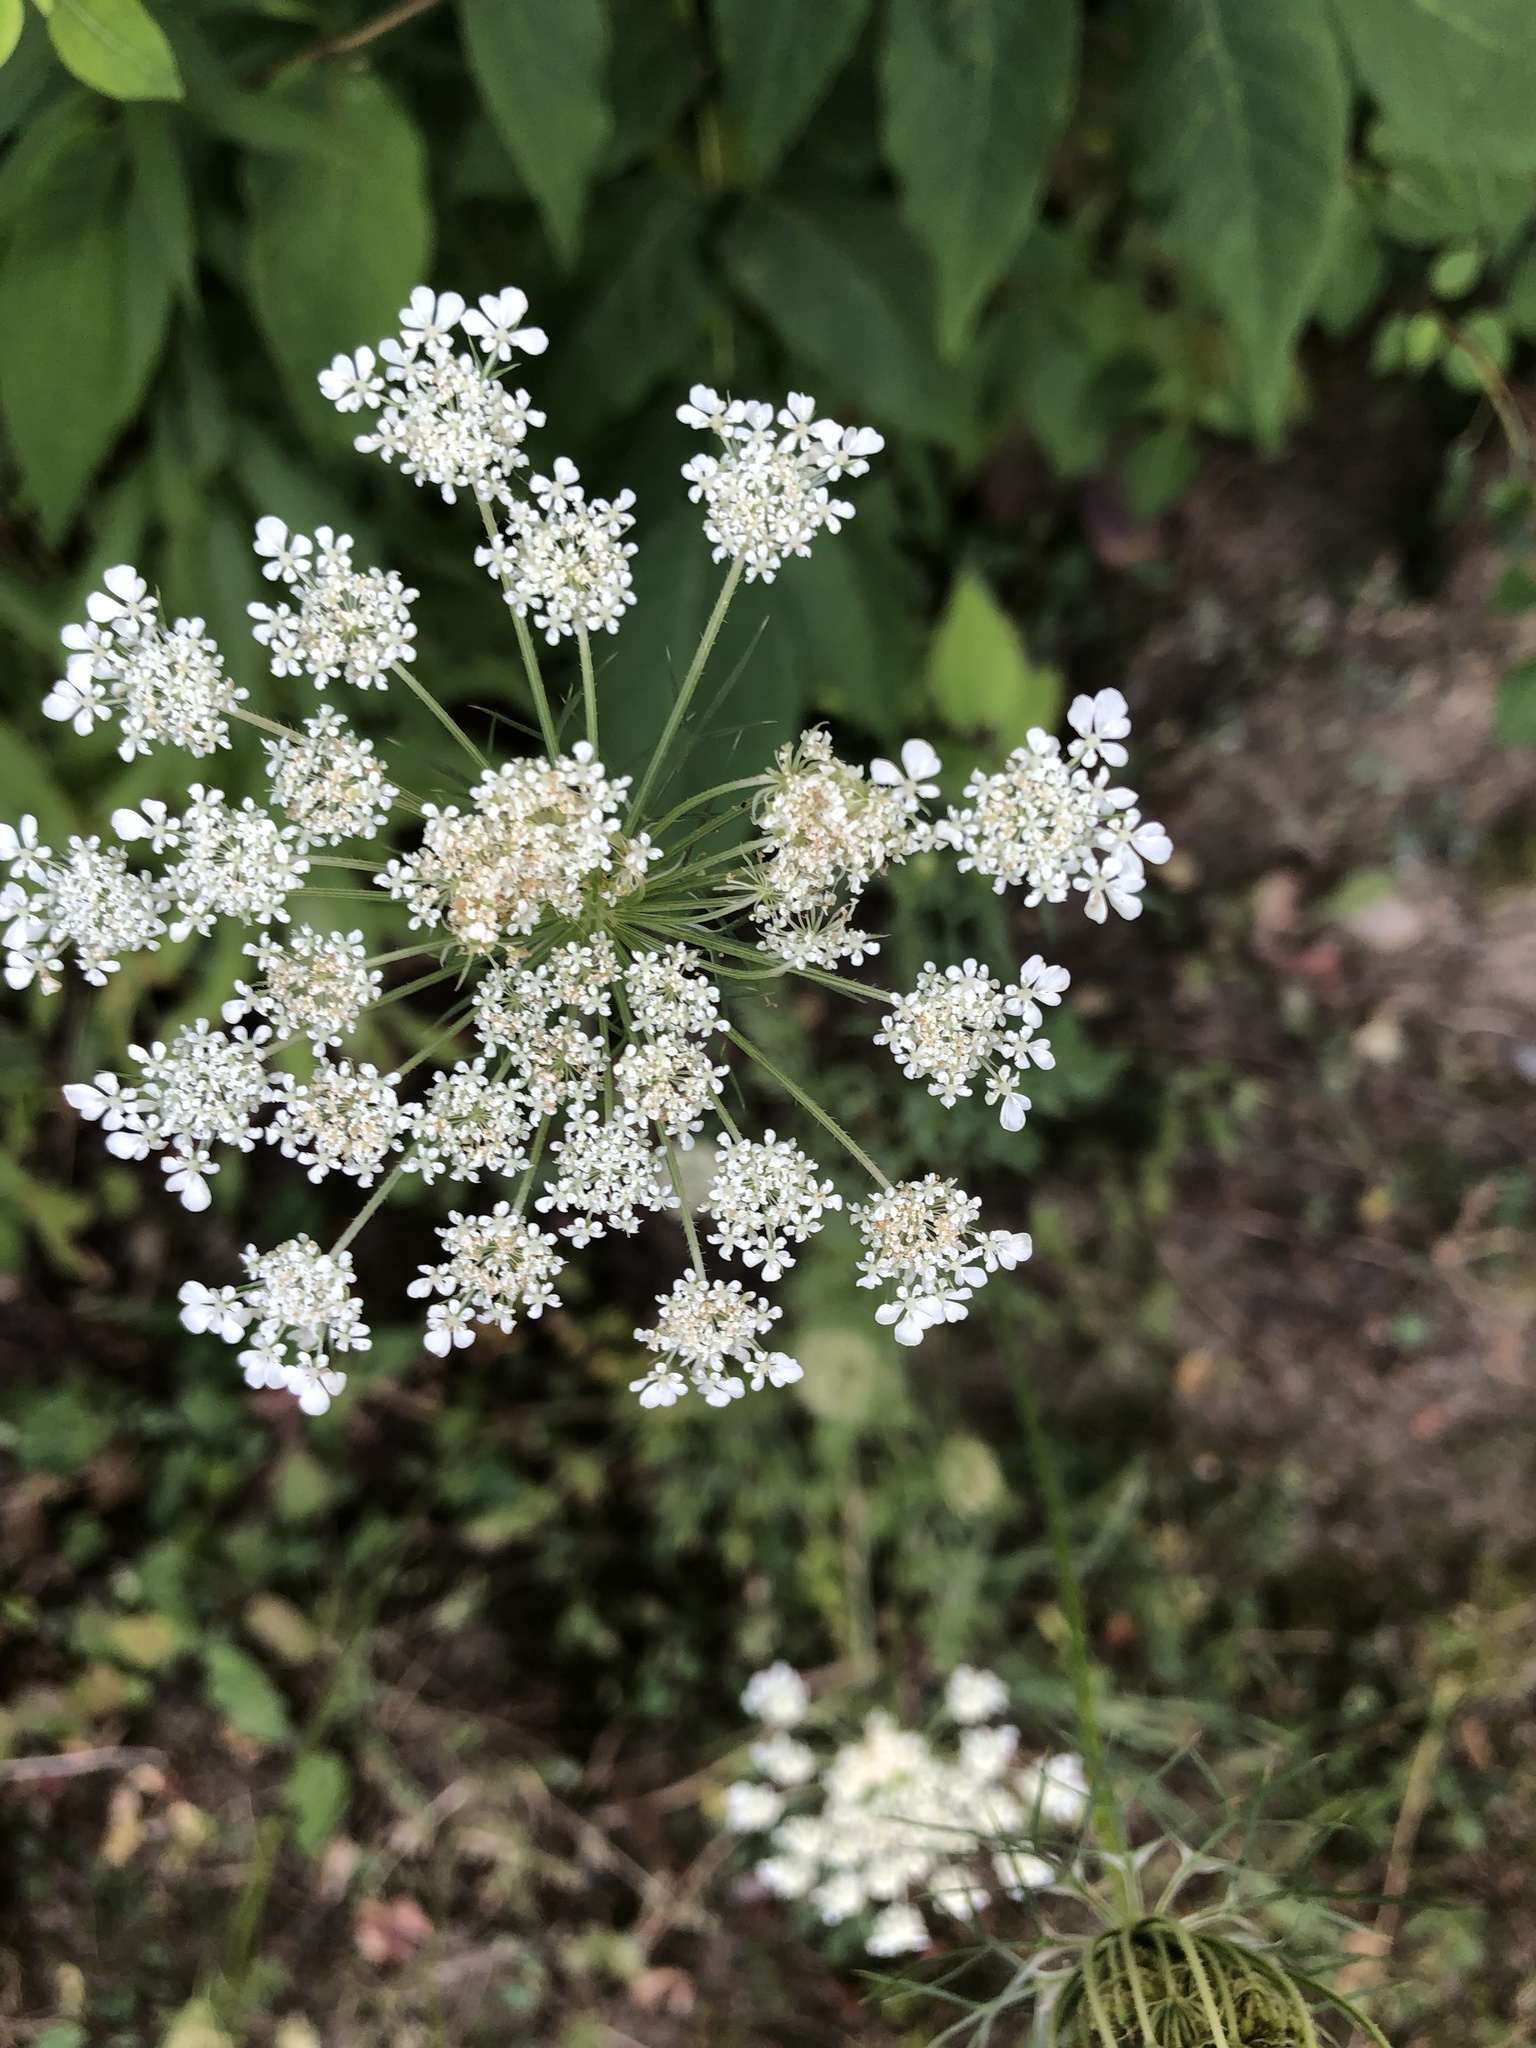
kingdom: Plantae
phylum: Tracheophyta
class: Magnoliopsida
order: Apiales
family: Apiaceae
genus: Daucus
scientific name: Daucus carota
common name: Wild carrot
